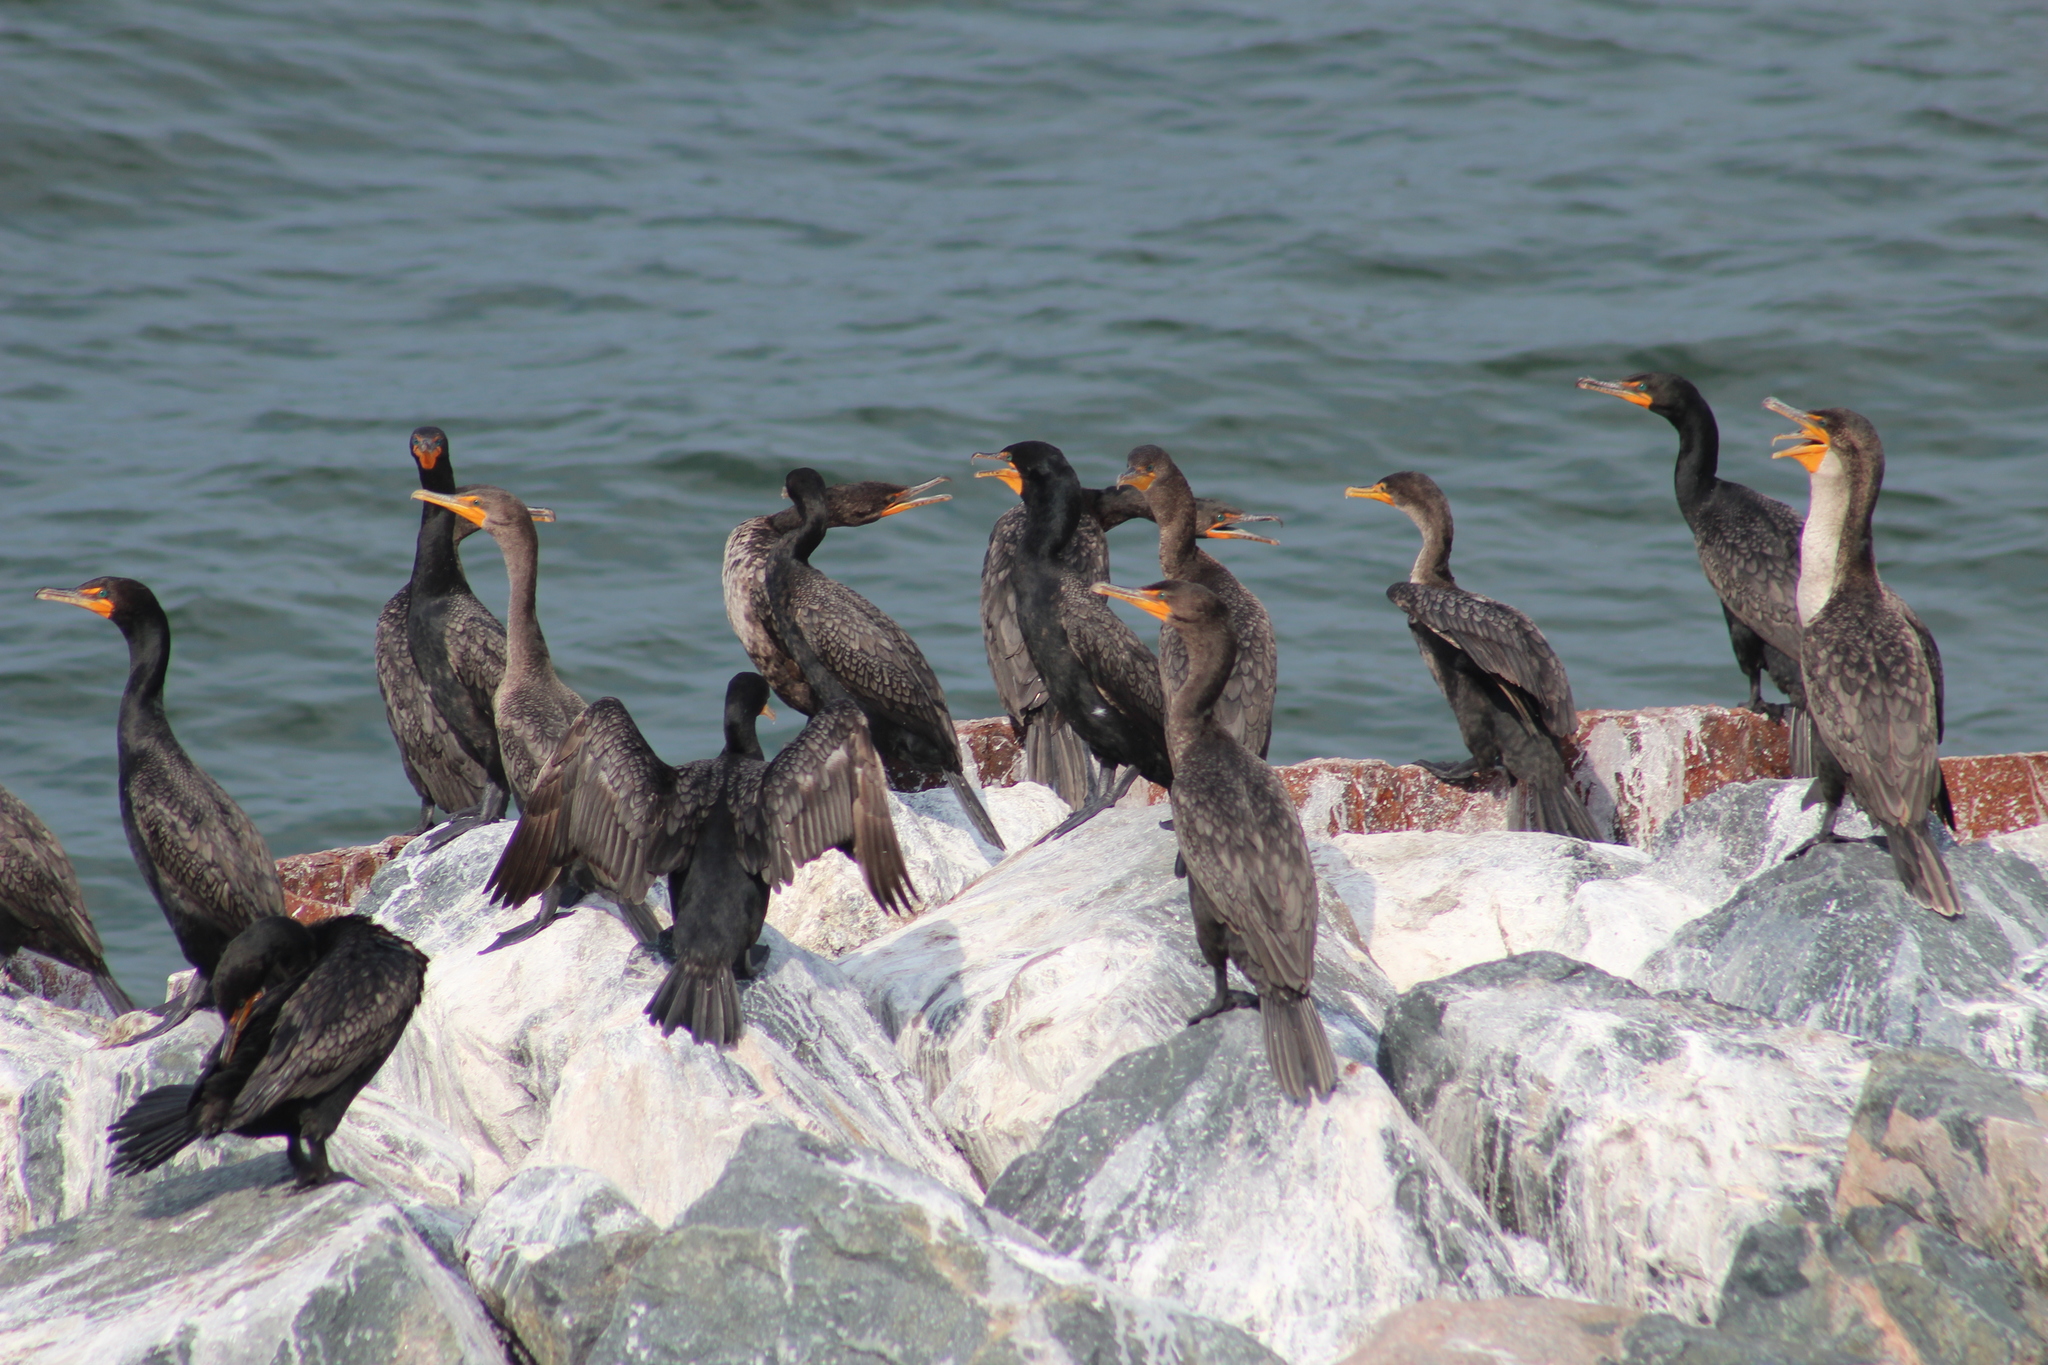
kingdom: Animalia
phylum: Chordata
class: Aves
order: Suliformes
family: Phalacrocoracidae
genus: Phalacrocorax
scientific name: Phalacrocorax auritus
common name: Double-crested cormorant
